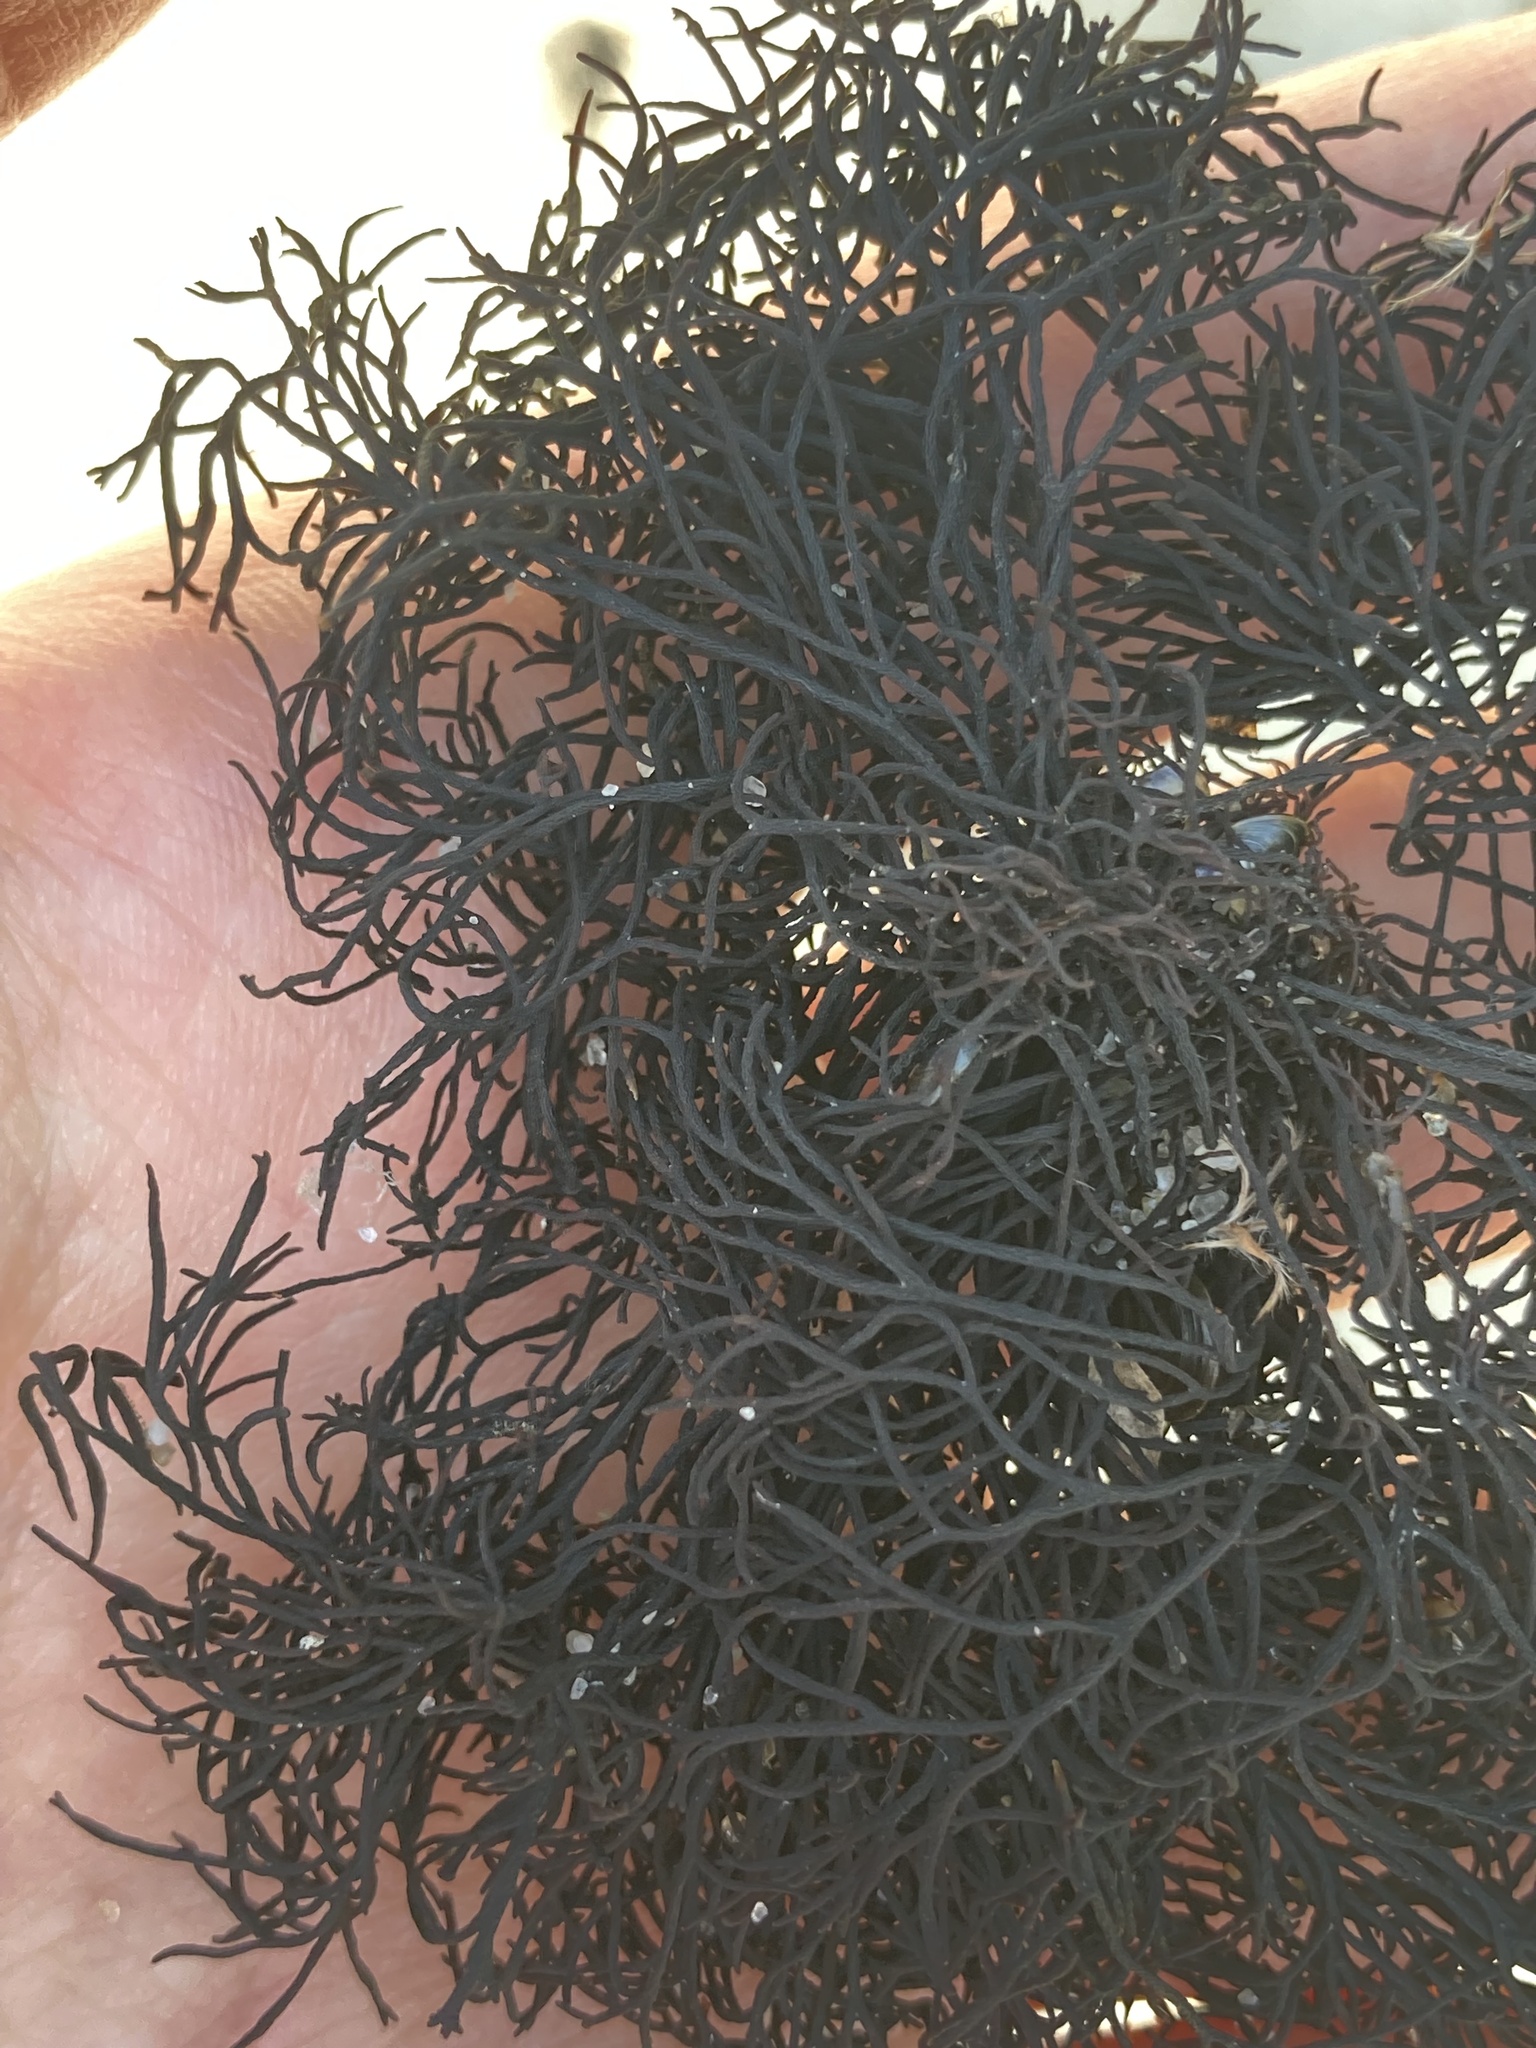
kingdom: Plantae
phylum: Rhodophyta
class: Florideophyceae
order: Gigartinales
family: Furcellariaceae
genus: Furcellaria
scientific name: Furcellaria lumbricalis
